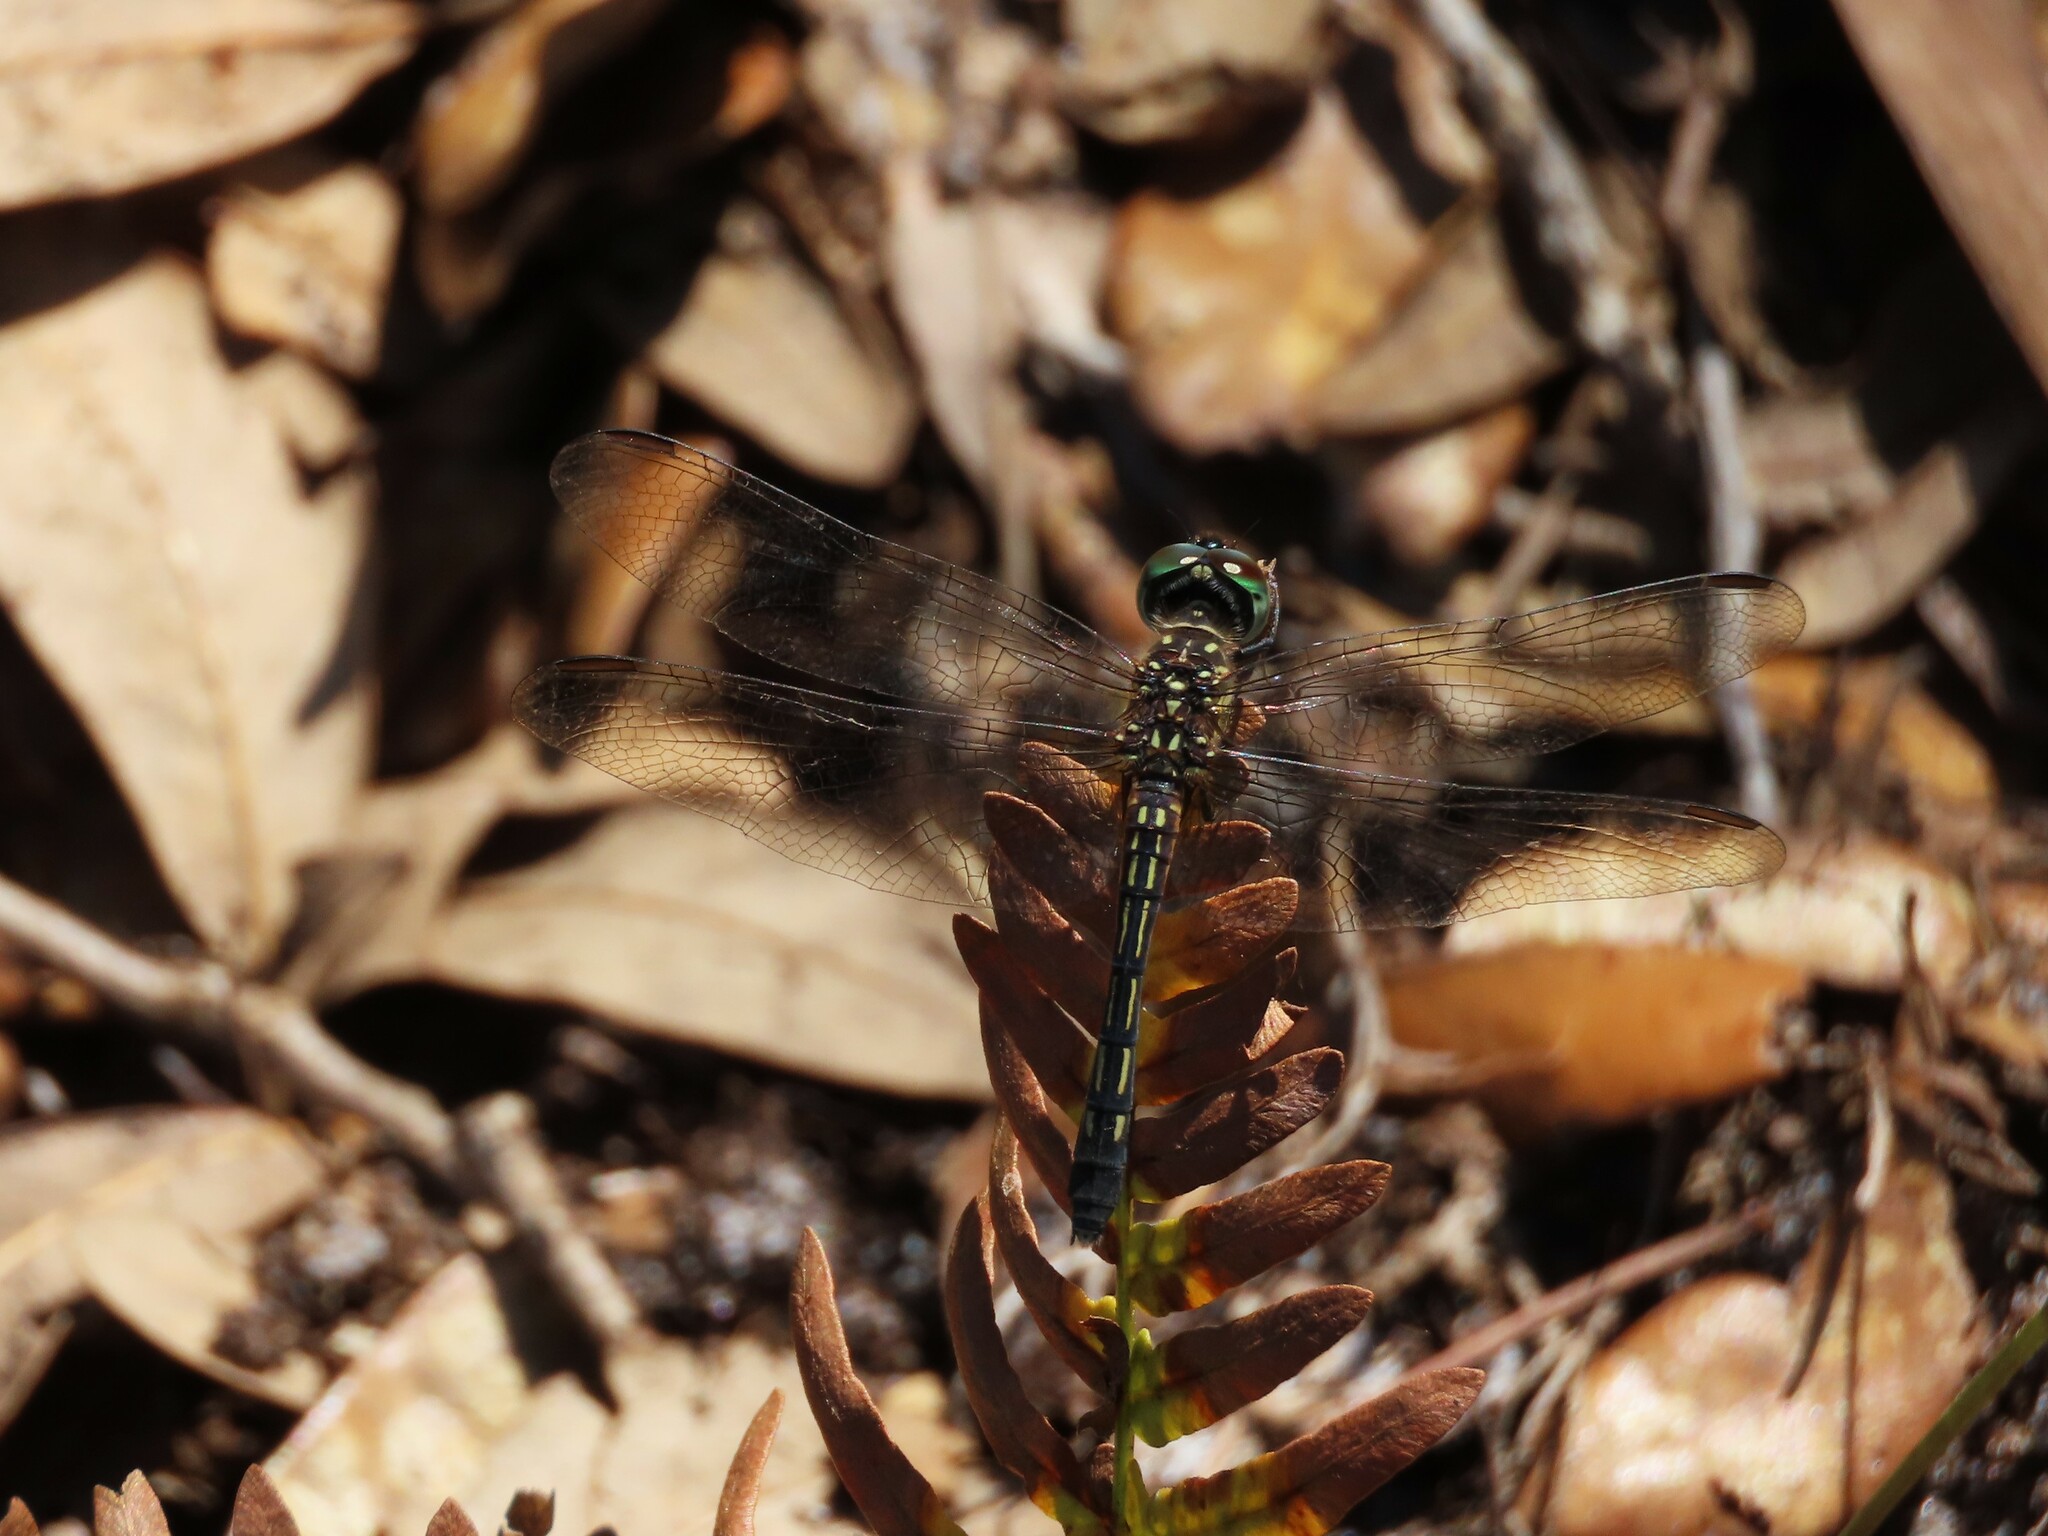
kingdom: Animalia
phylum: Arthropoda
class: Insecta
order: Odonata
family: Libellulidae
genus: Pachydiplax
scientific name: Pachydiplax longipennis
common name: Blue dasher
